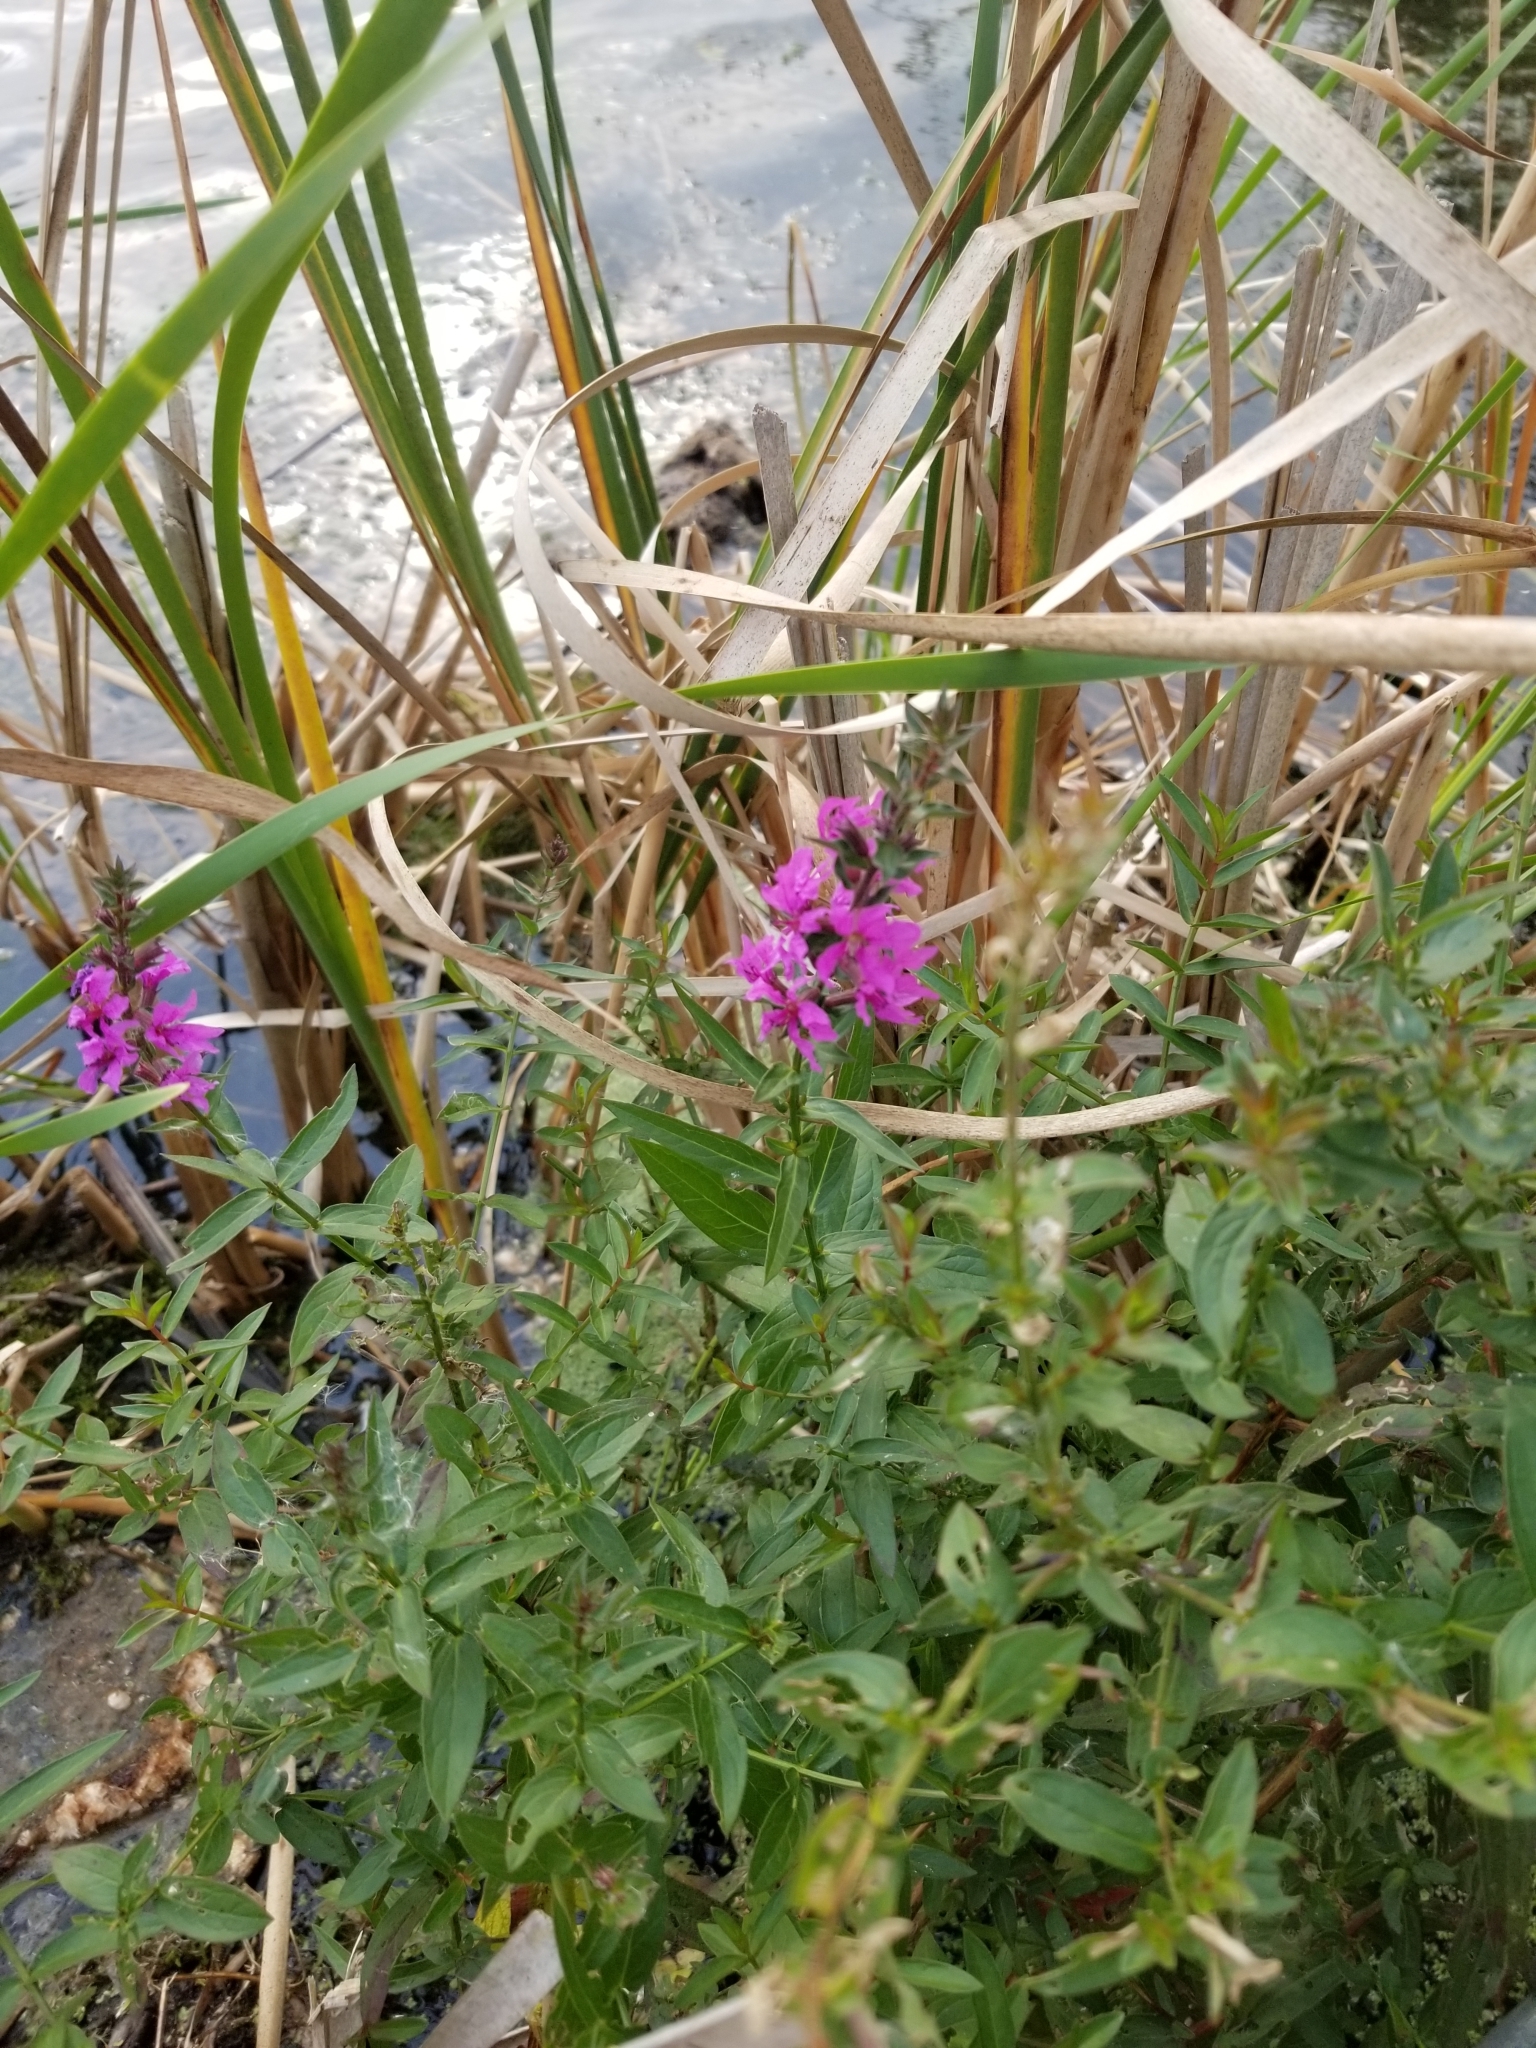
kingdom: Plantae
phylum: Tracheophyta
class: Magnoliopsida
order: Myrtales
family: Lythraceae
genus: Lythrum
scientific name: Lythrum salicaria
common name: Purple loosestrife
